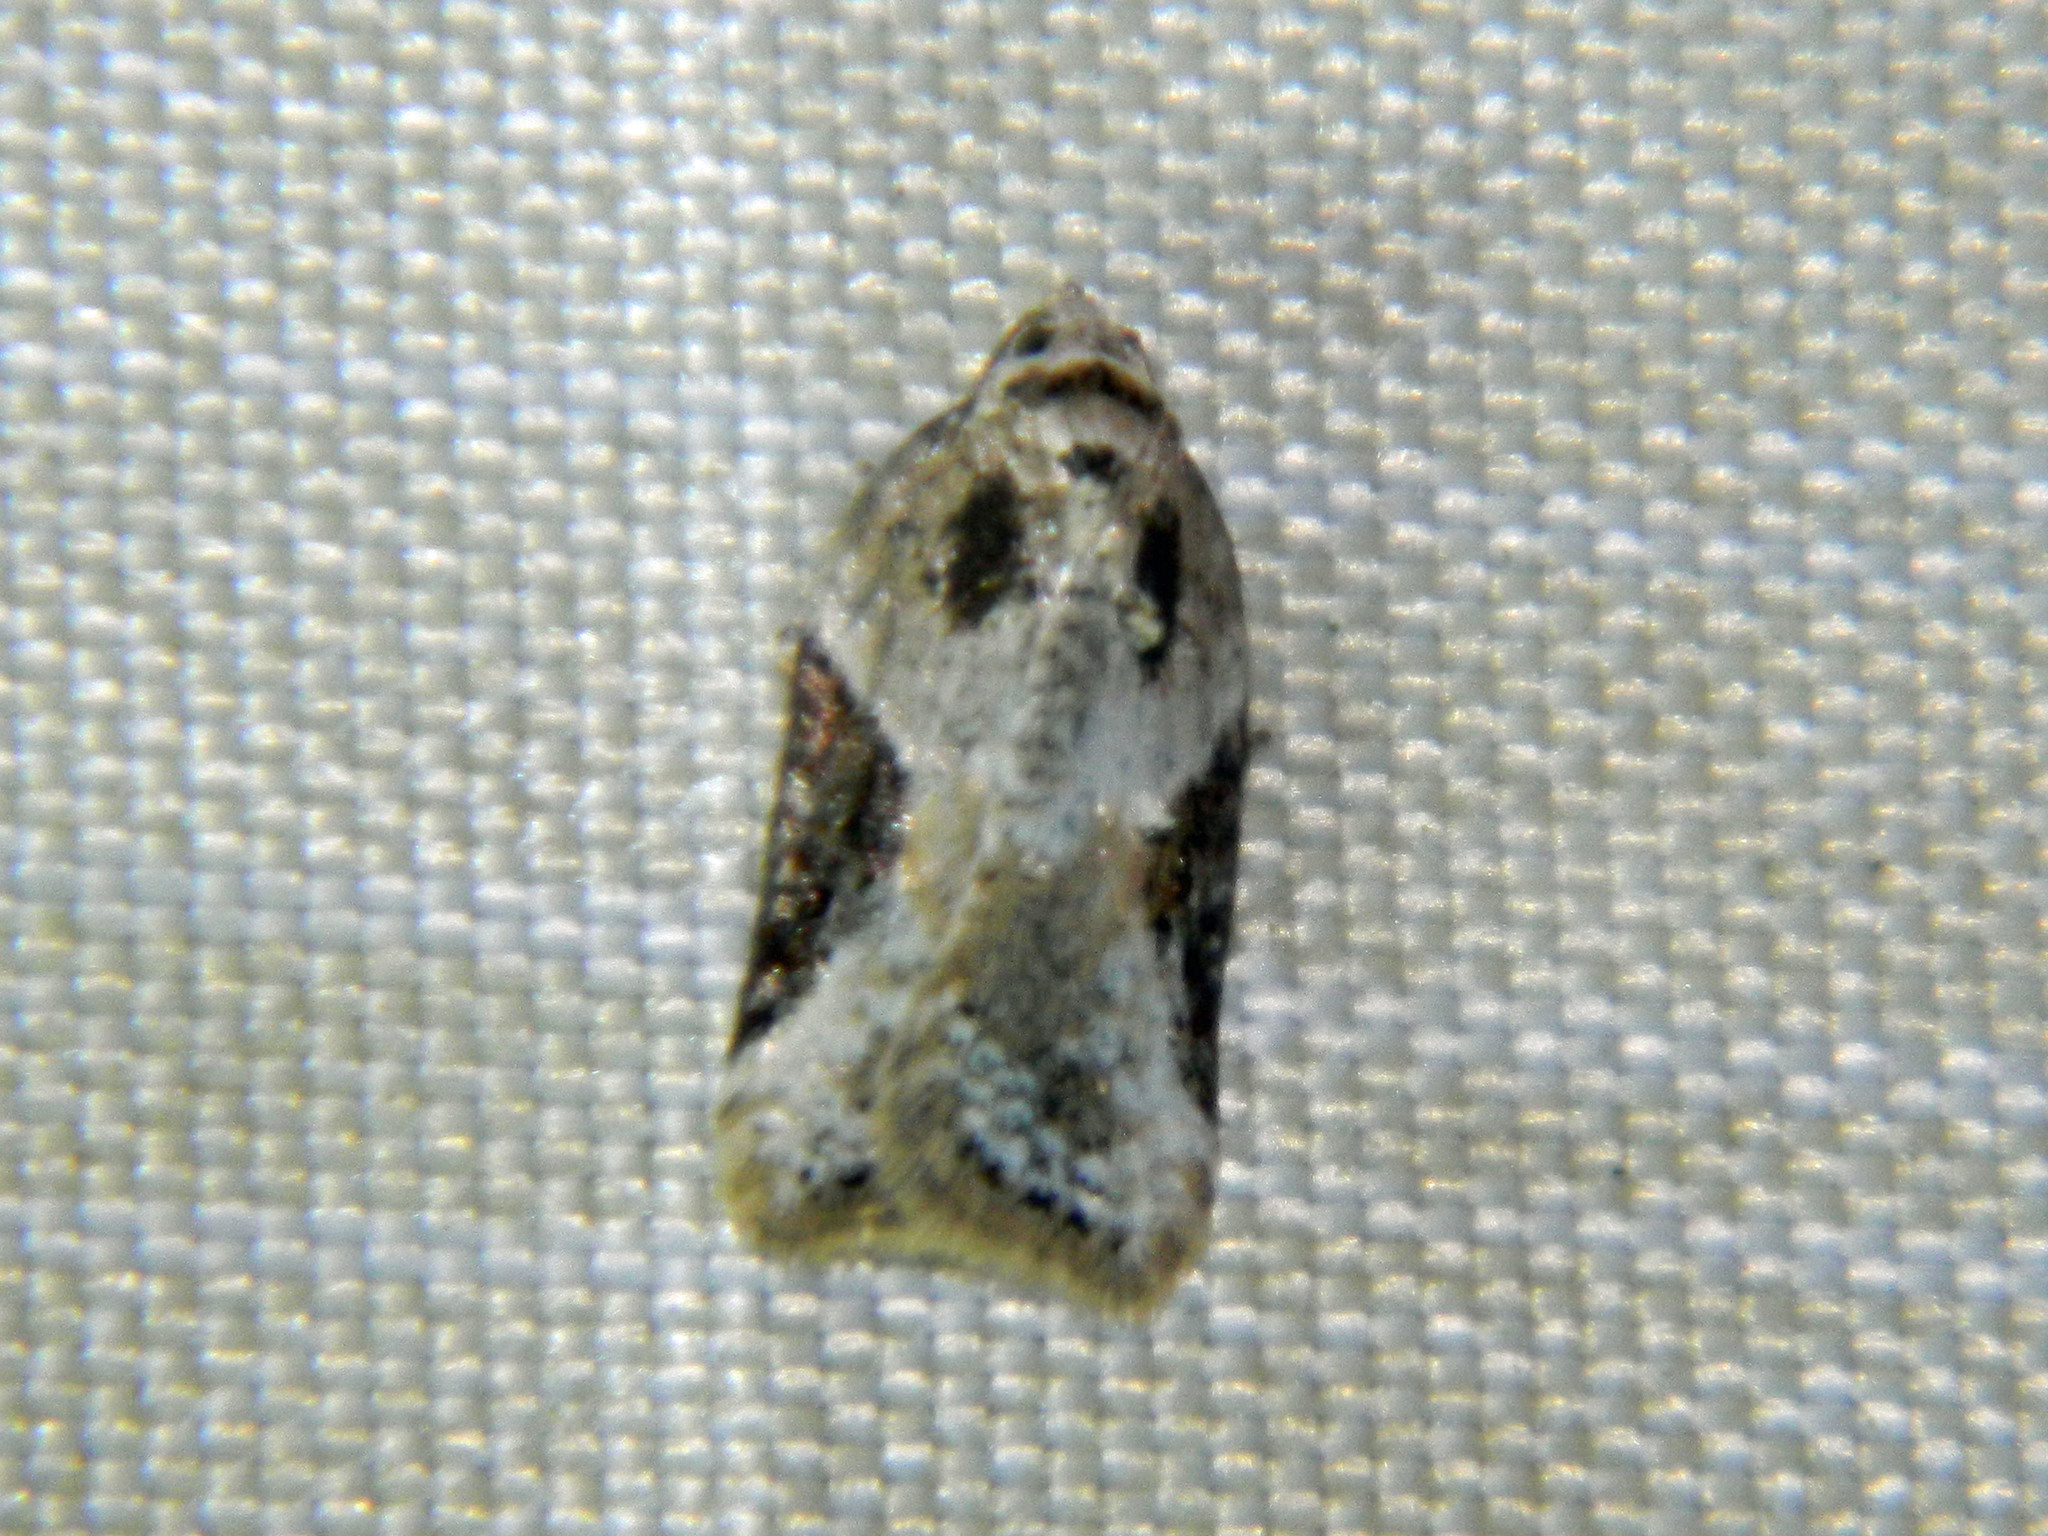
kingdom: Animalia
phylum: Arthropoda
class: Insecta
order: Lepidoptera
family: Tortricidae
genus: Acleris
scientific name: Acleris forbesana
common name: Forbes' acleris moth
